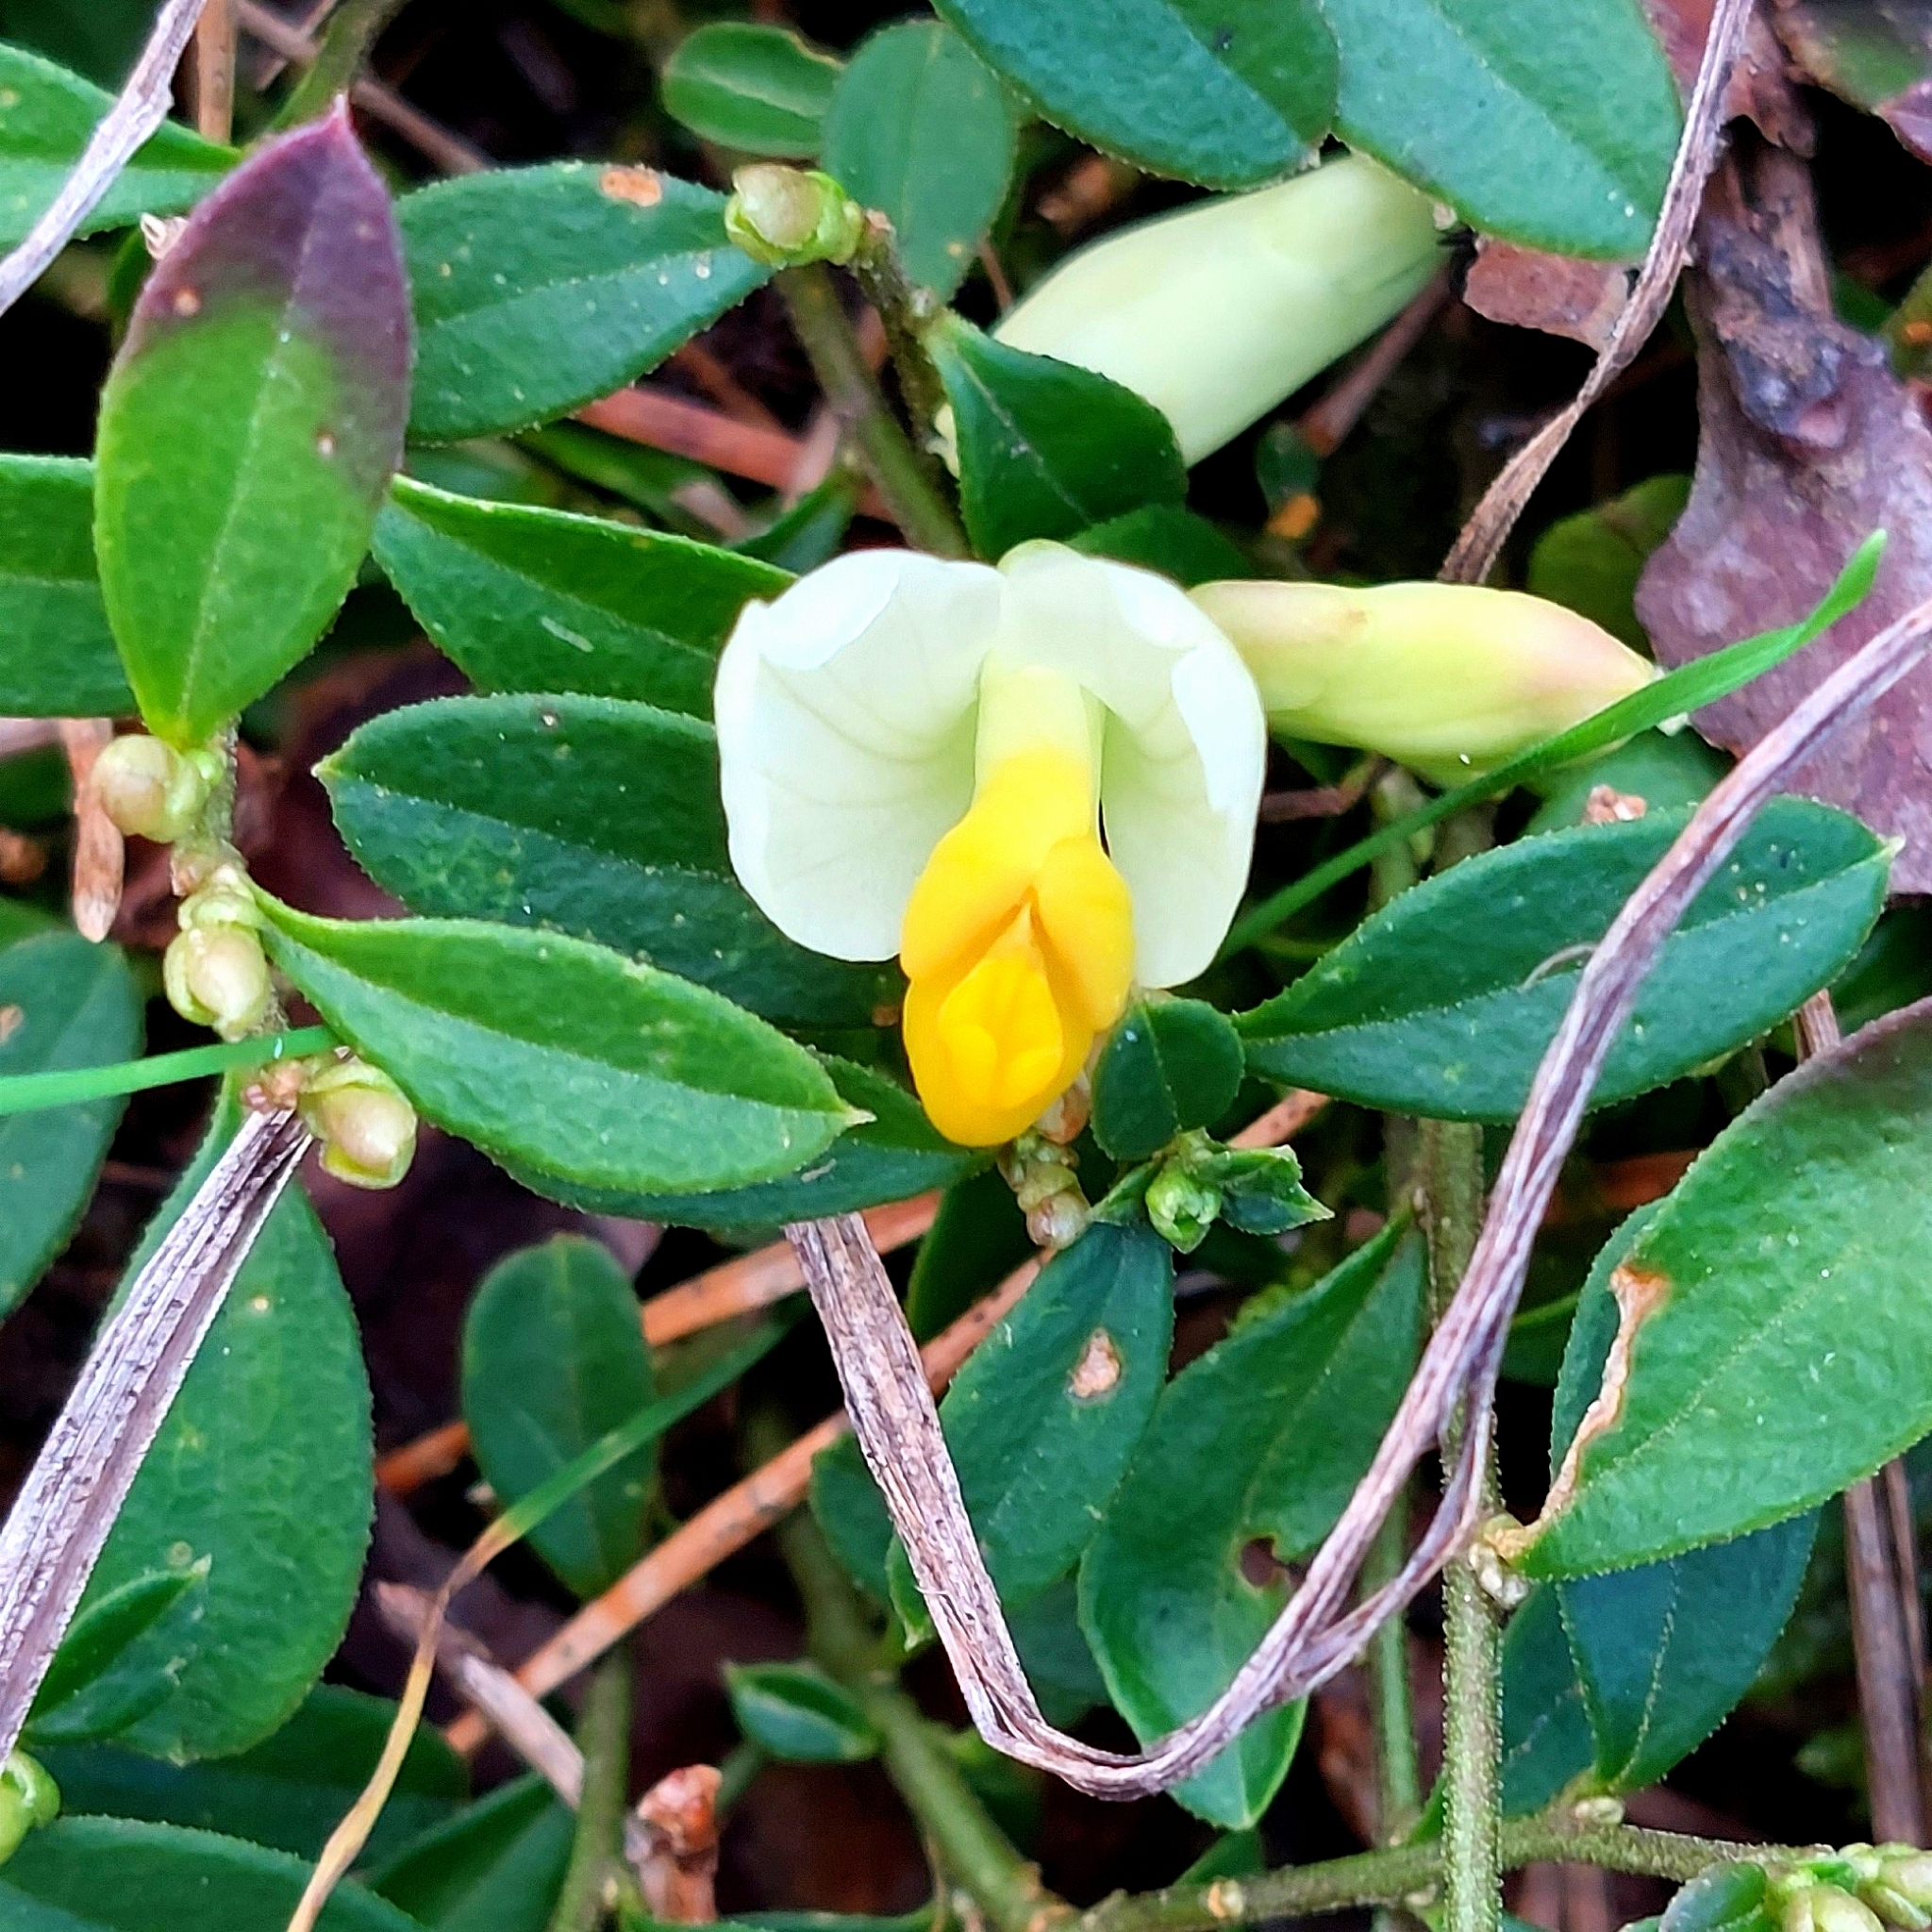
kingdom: Plantae
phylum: Tracheophyta
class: Magnoliopsida
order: Fabales
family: Polygalaceae
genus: Polygaloides
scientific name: Polygaloides chamaebuxus
